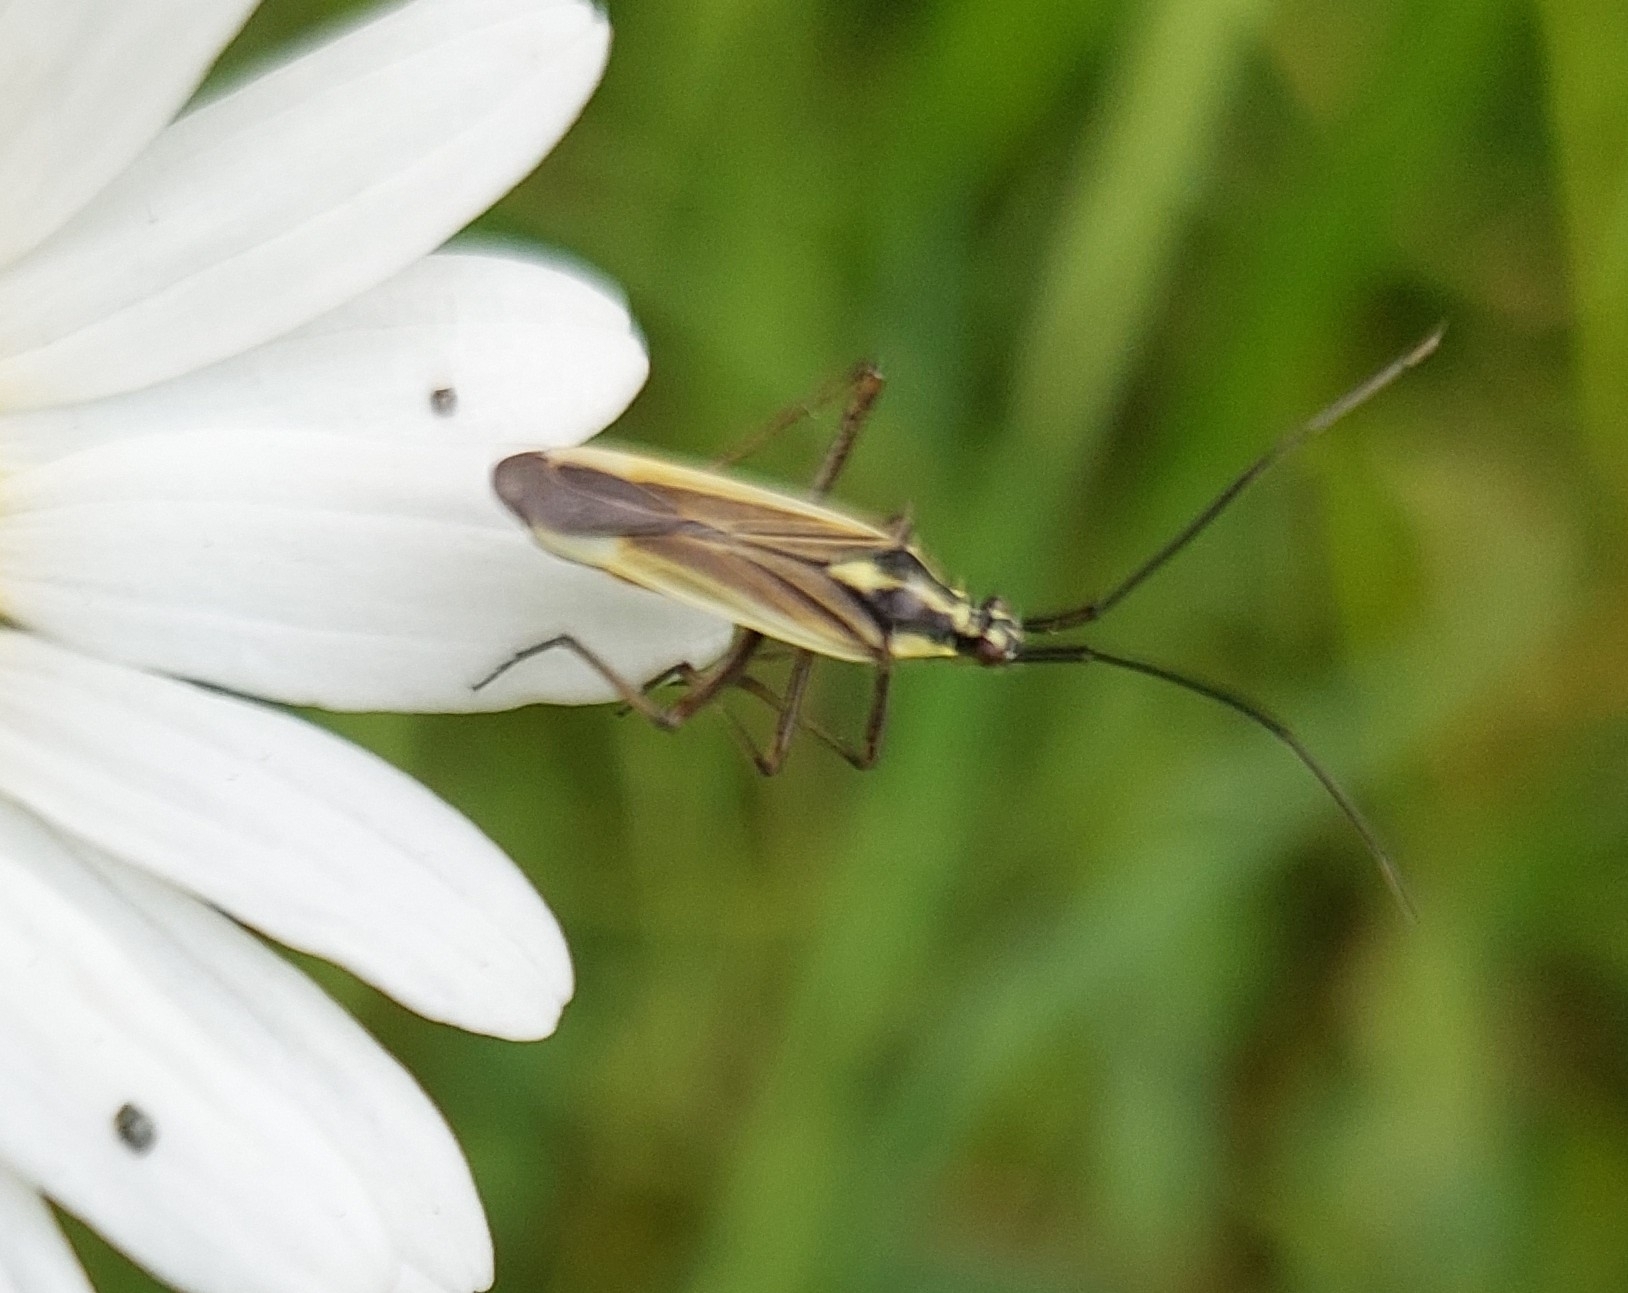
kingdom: Animalia
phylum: Arthropoda
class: Insecta
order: Hemiptera
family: Miridae
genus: Leptopterna
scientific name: Leptopterna dolabrata
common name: Meadow plant bug
